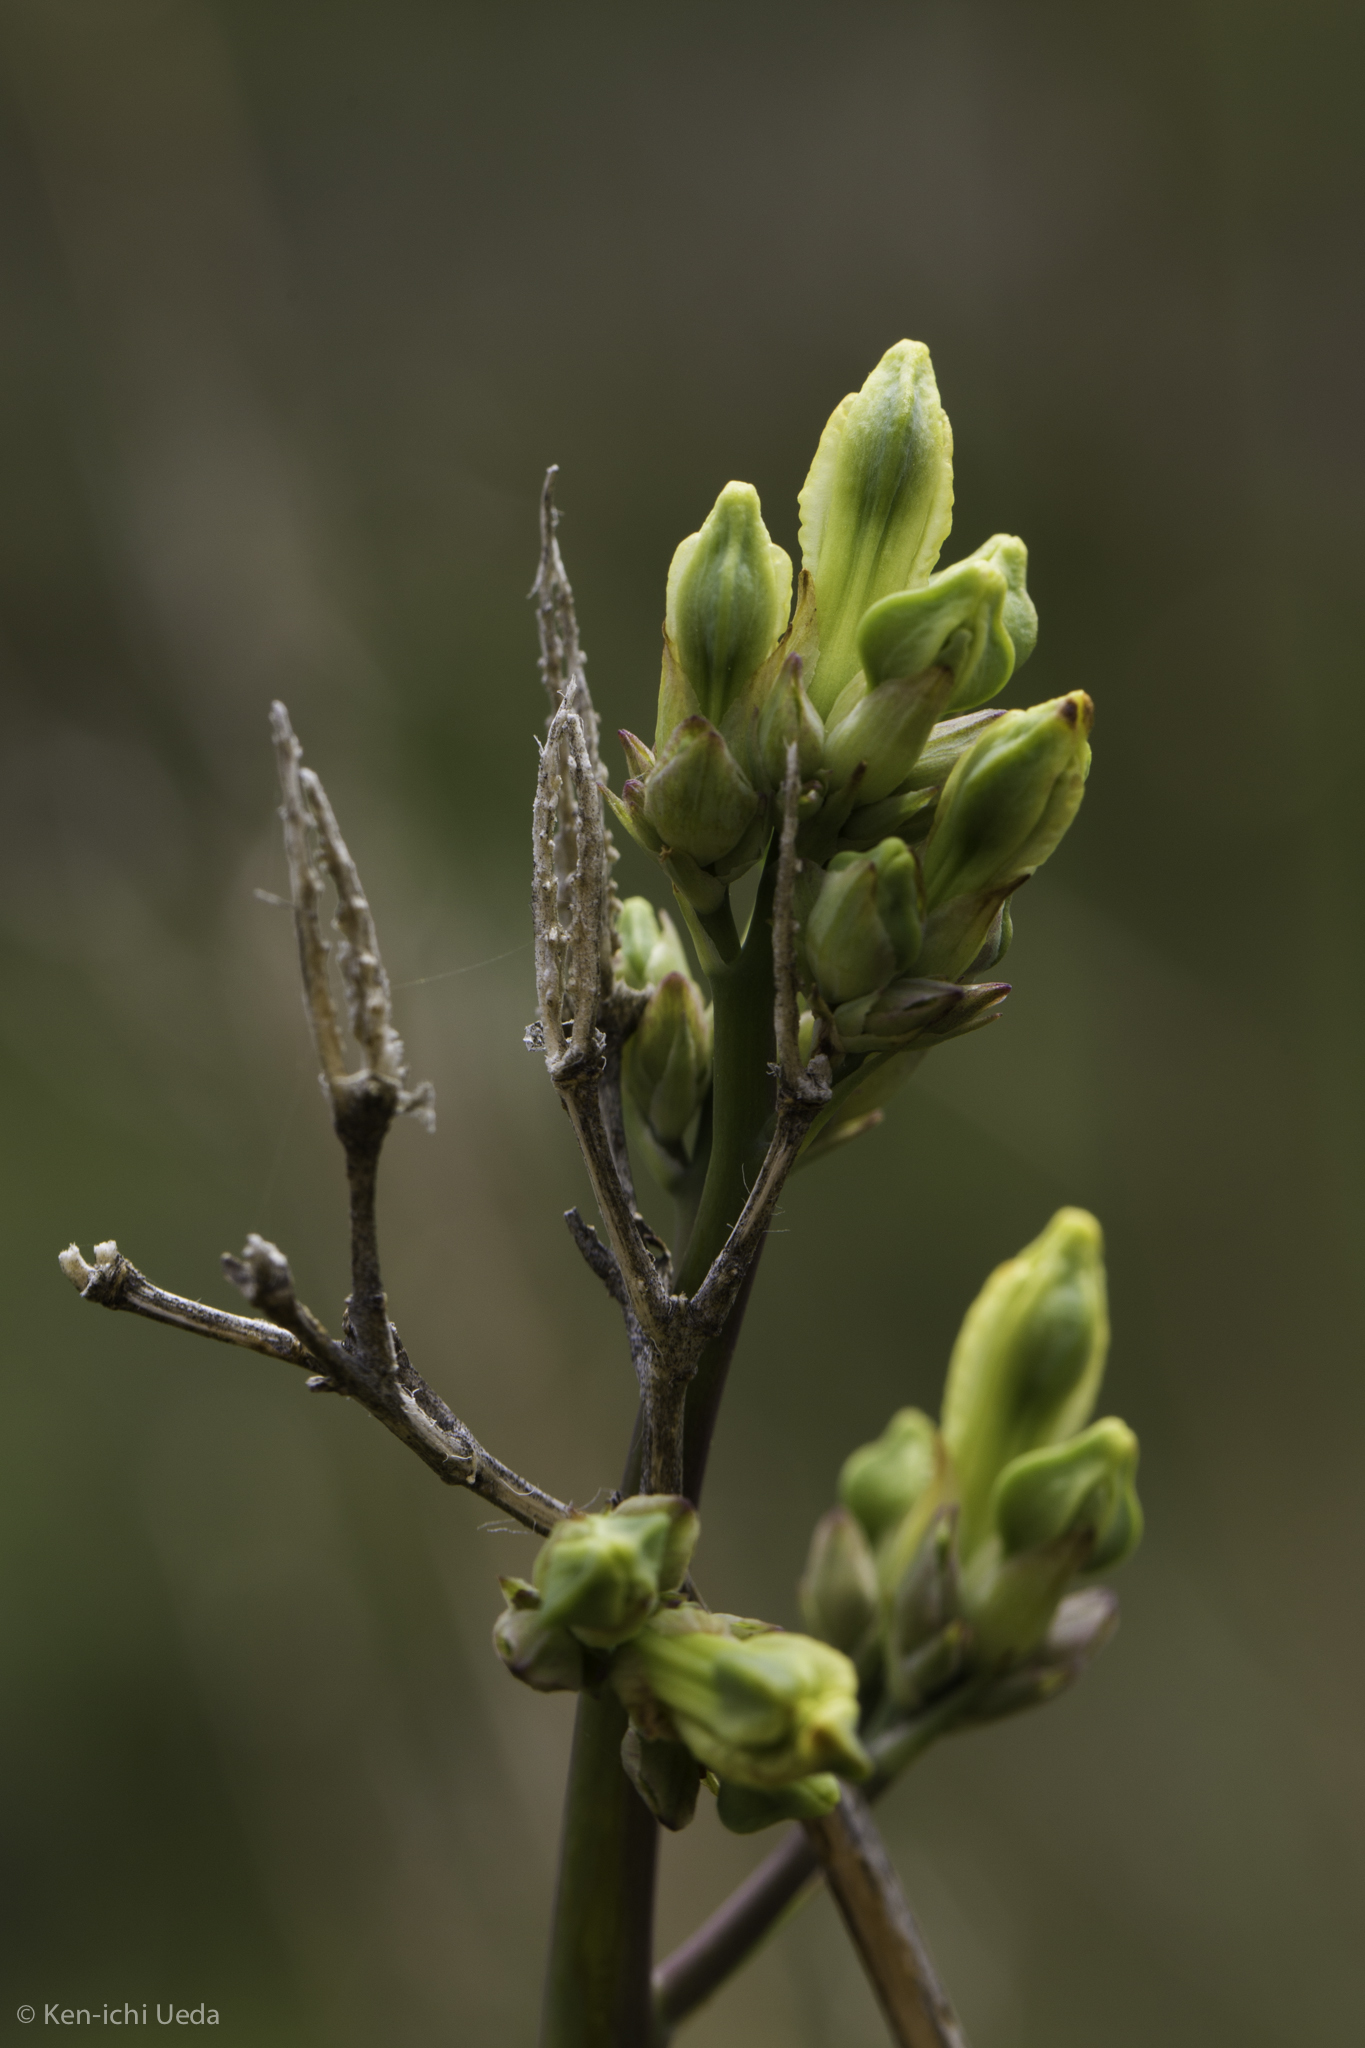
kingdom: Plantae
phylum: Tracheophyta
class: Magnoliopsida
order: Ranunculales
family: Papaveraceae
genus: Ehrendorferia
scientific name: Ehrendorferia chrysantha
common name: Golden eardrops
